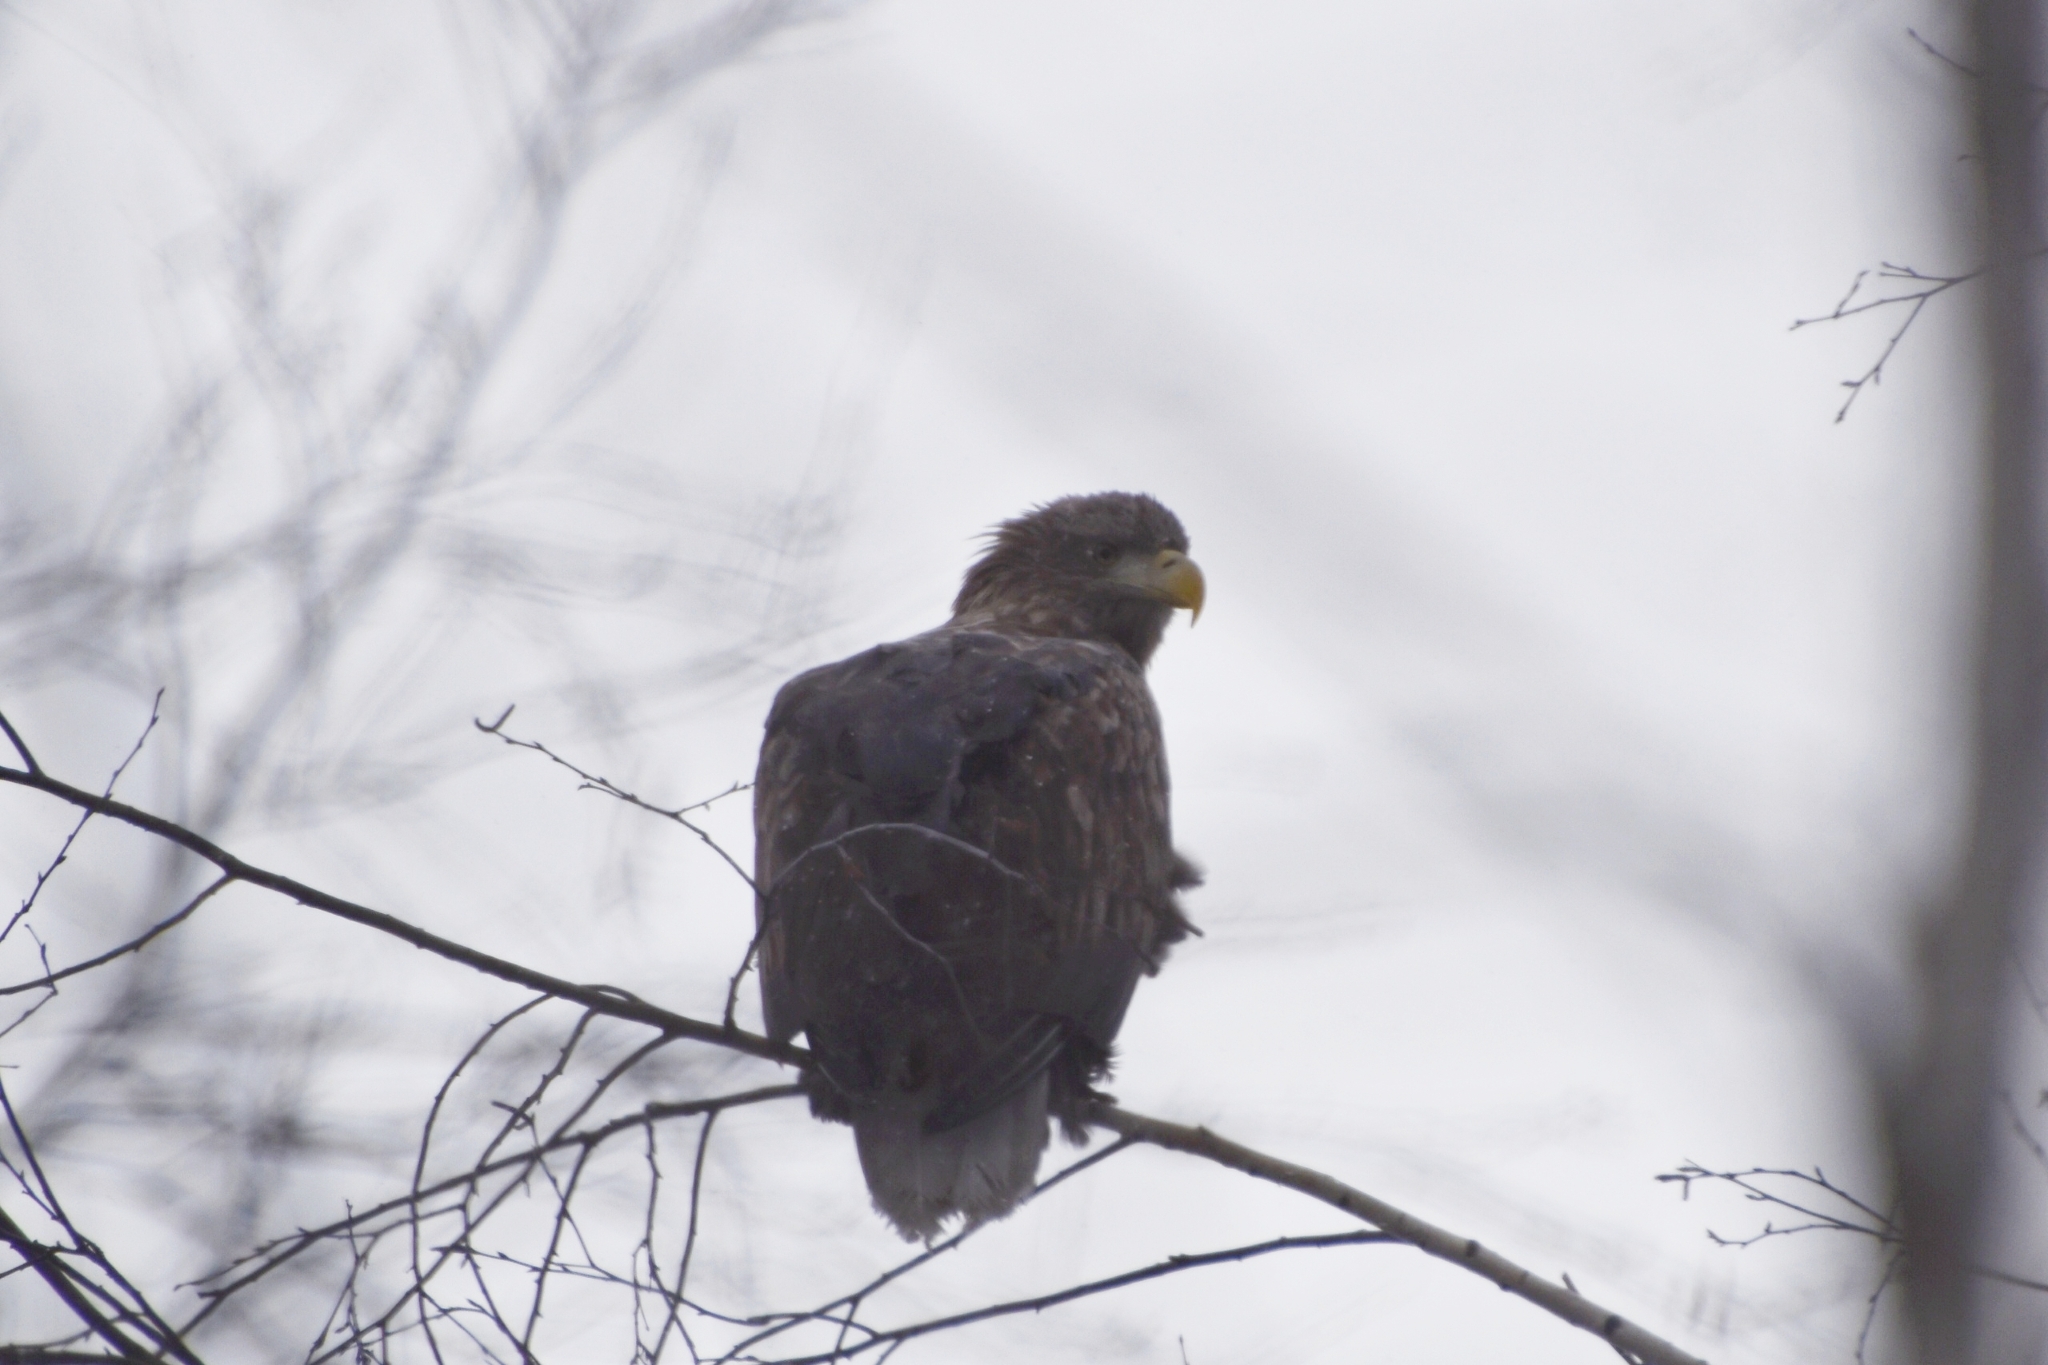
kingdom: Animalia
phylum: Chordata
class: Aves
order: Accipitriformes
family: Accipitridae
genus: Haliaeetus
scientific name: Haliaeetus albicilla
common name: White-tailed eagle
